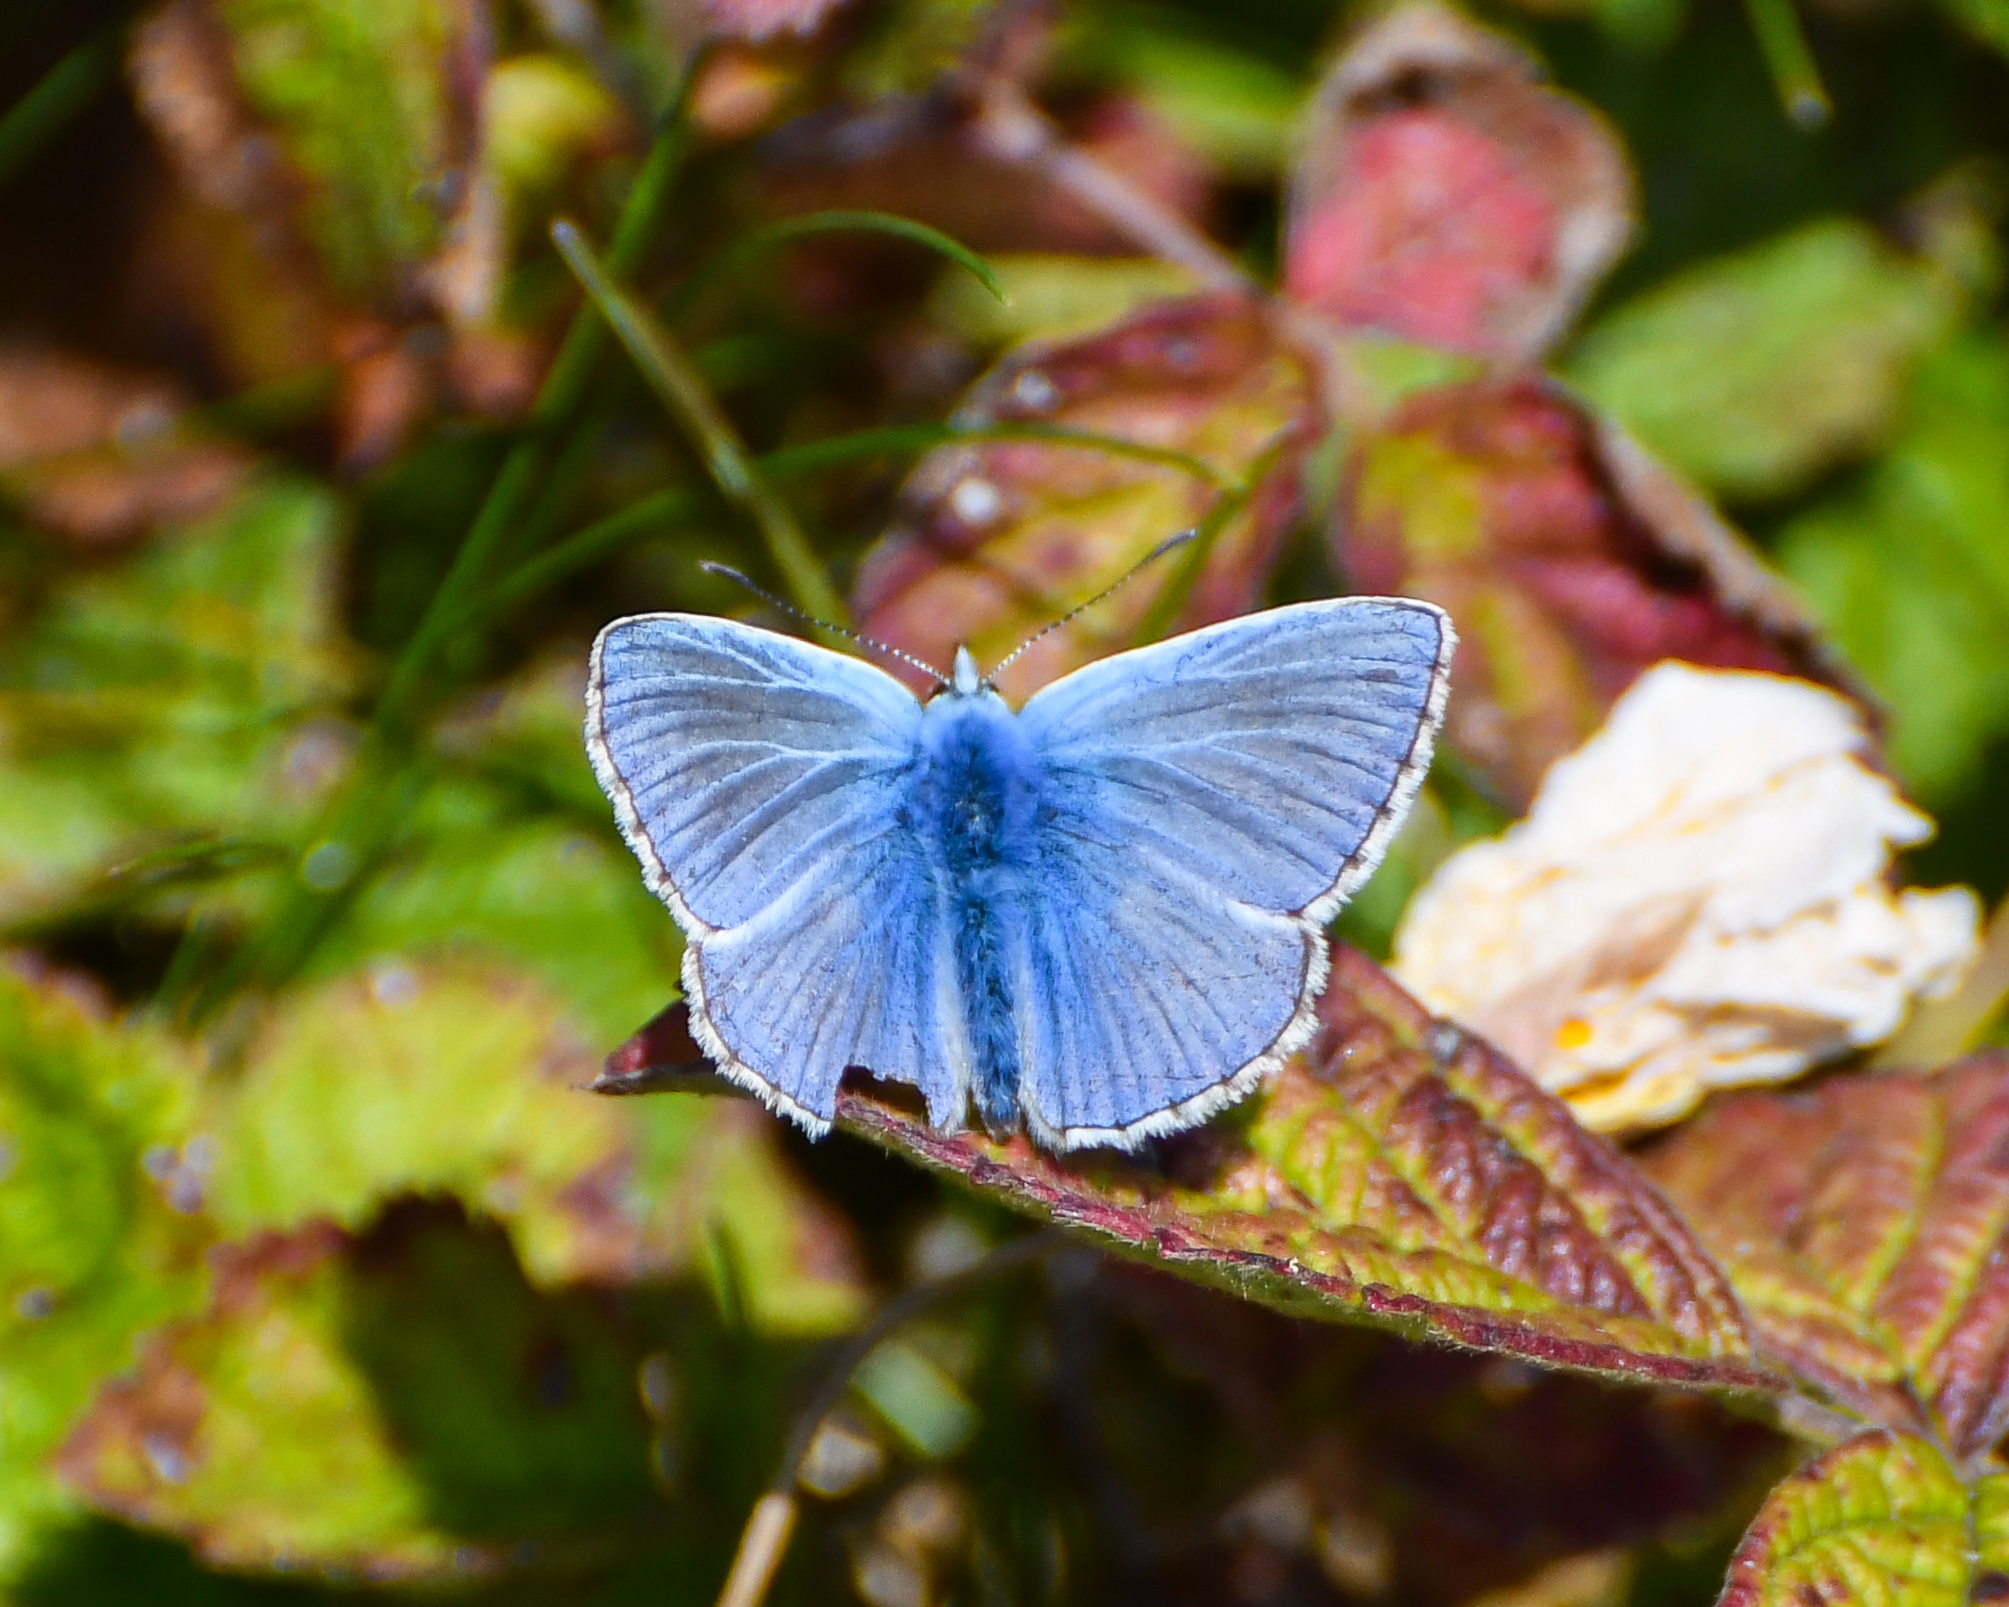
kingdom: Animalia
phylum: Arthropoda
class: Insecta
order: Lepidoptera
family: Lycaenidae
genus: Polyommatus
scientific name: Polyommatus icarus
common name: Common blue
